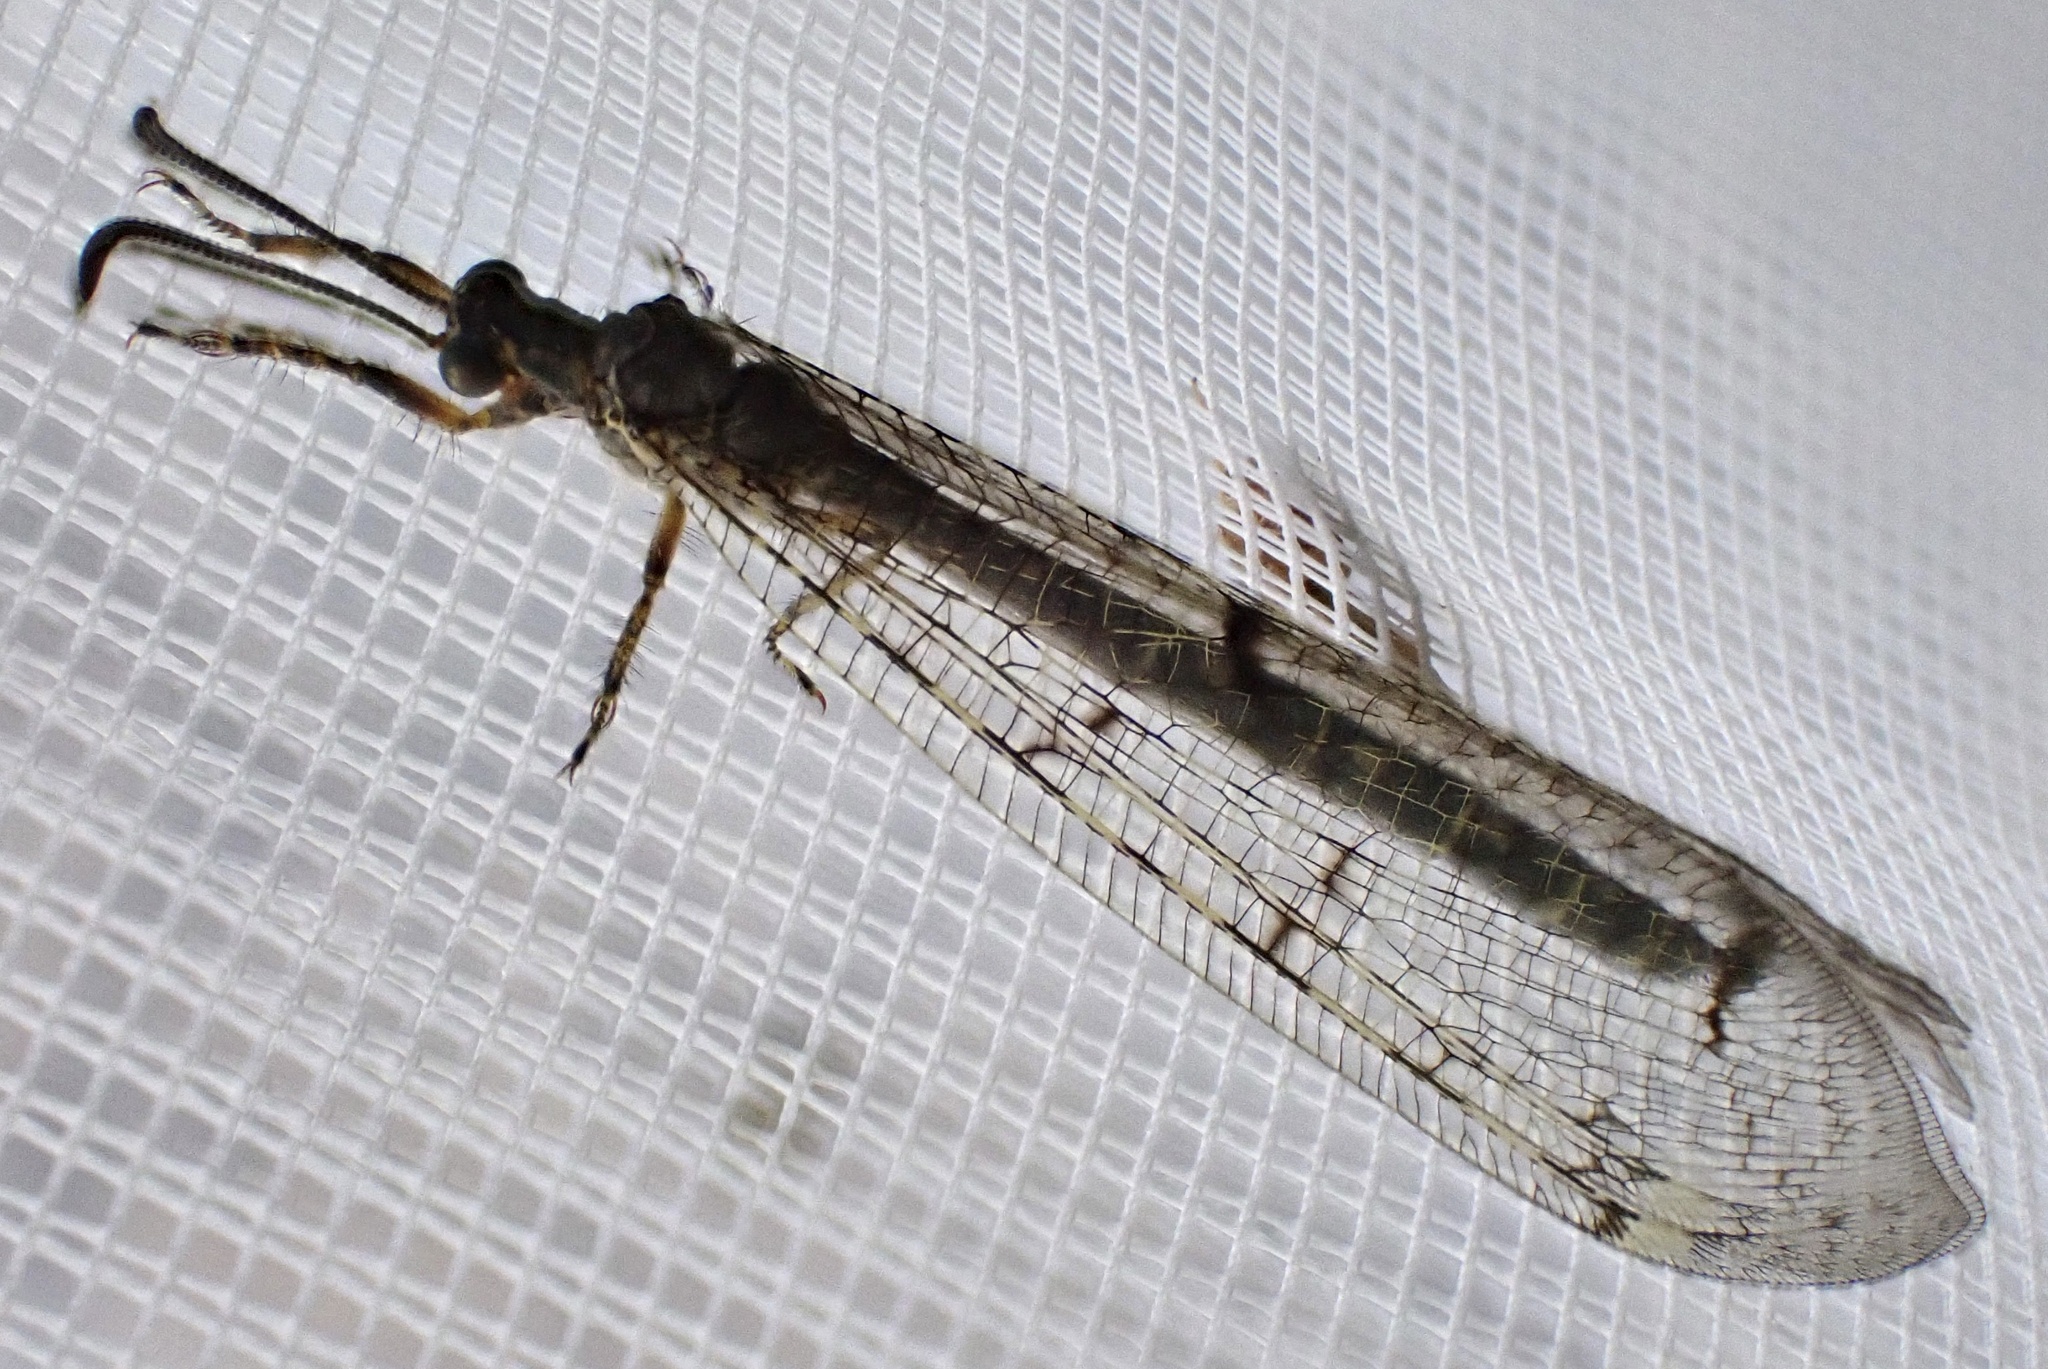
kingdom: Animalia
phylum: Arthropoda
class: Insecta
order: Neuroptera
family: Myrmeleontidae
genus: Distoleon
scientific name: Distoleon tetragrammicus
